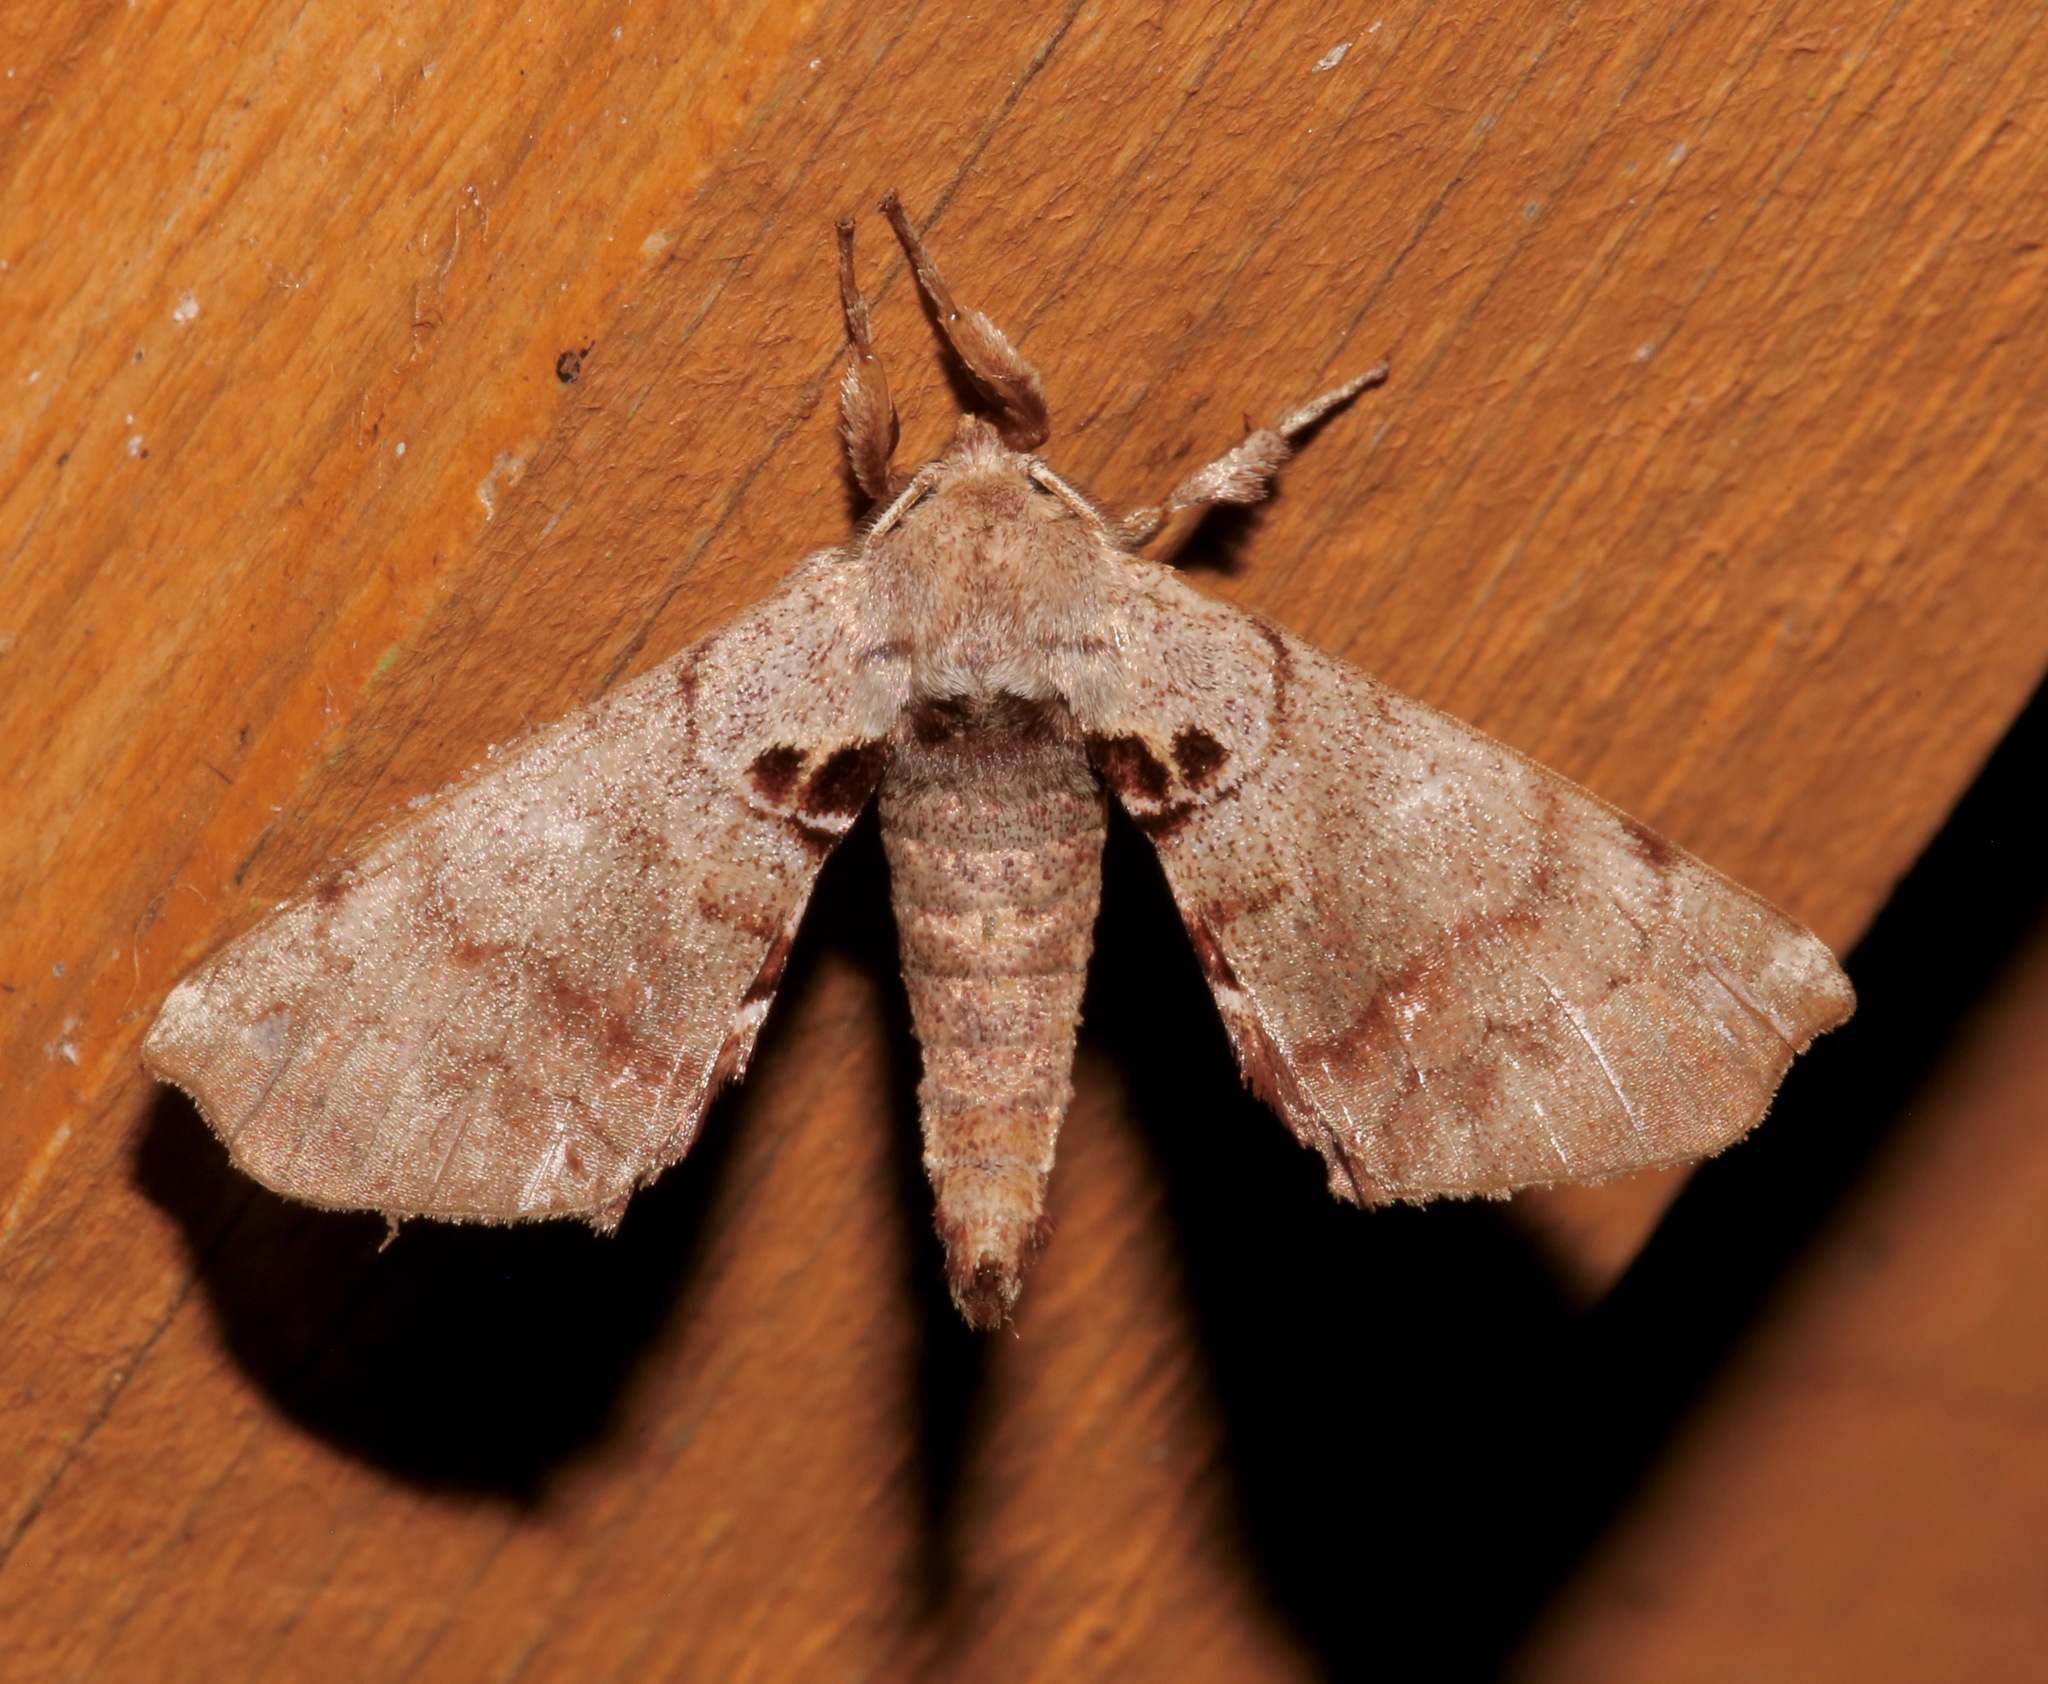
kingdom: Animalia
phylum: Arthropoda
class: Insecta
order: Lepidoptera
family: Apatelodidae
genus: Hygrochroa
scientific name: Hygrochroa Apatelodes torrefacta
